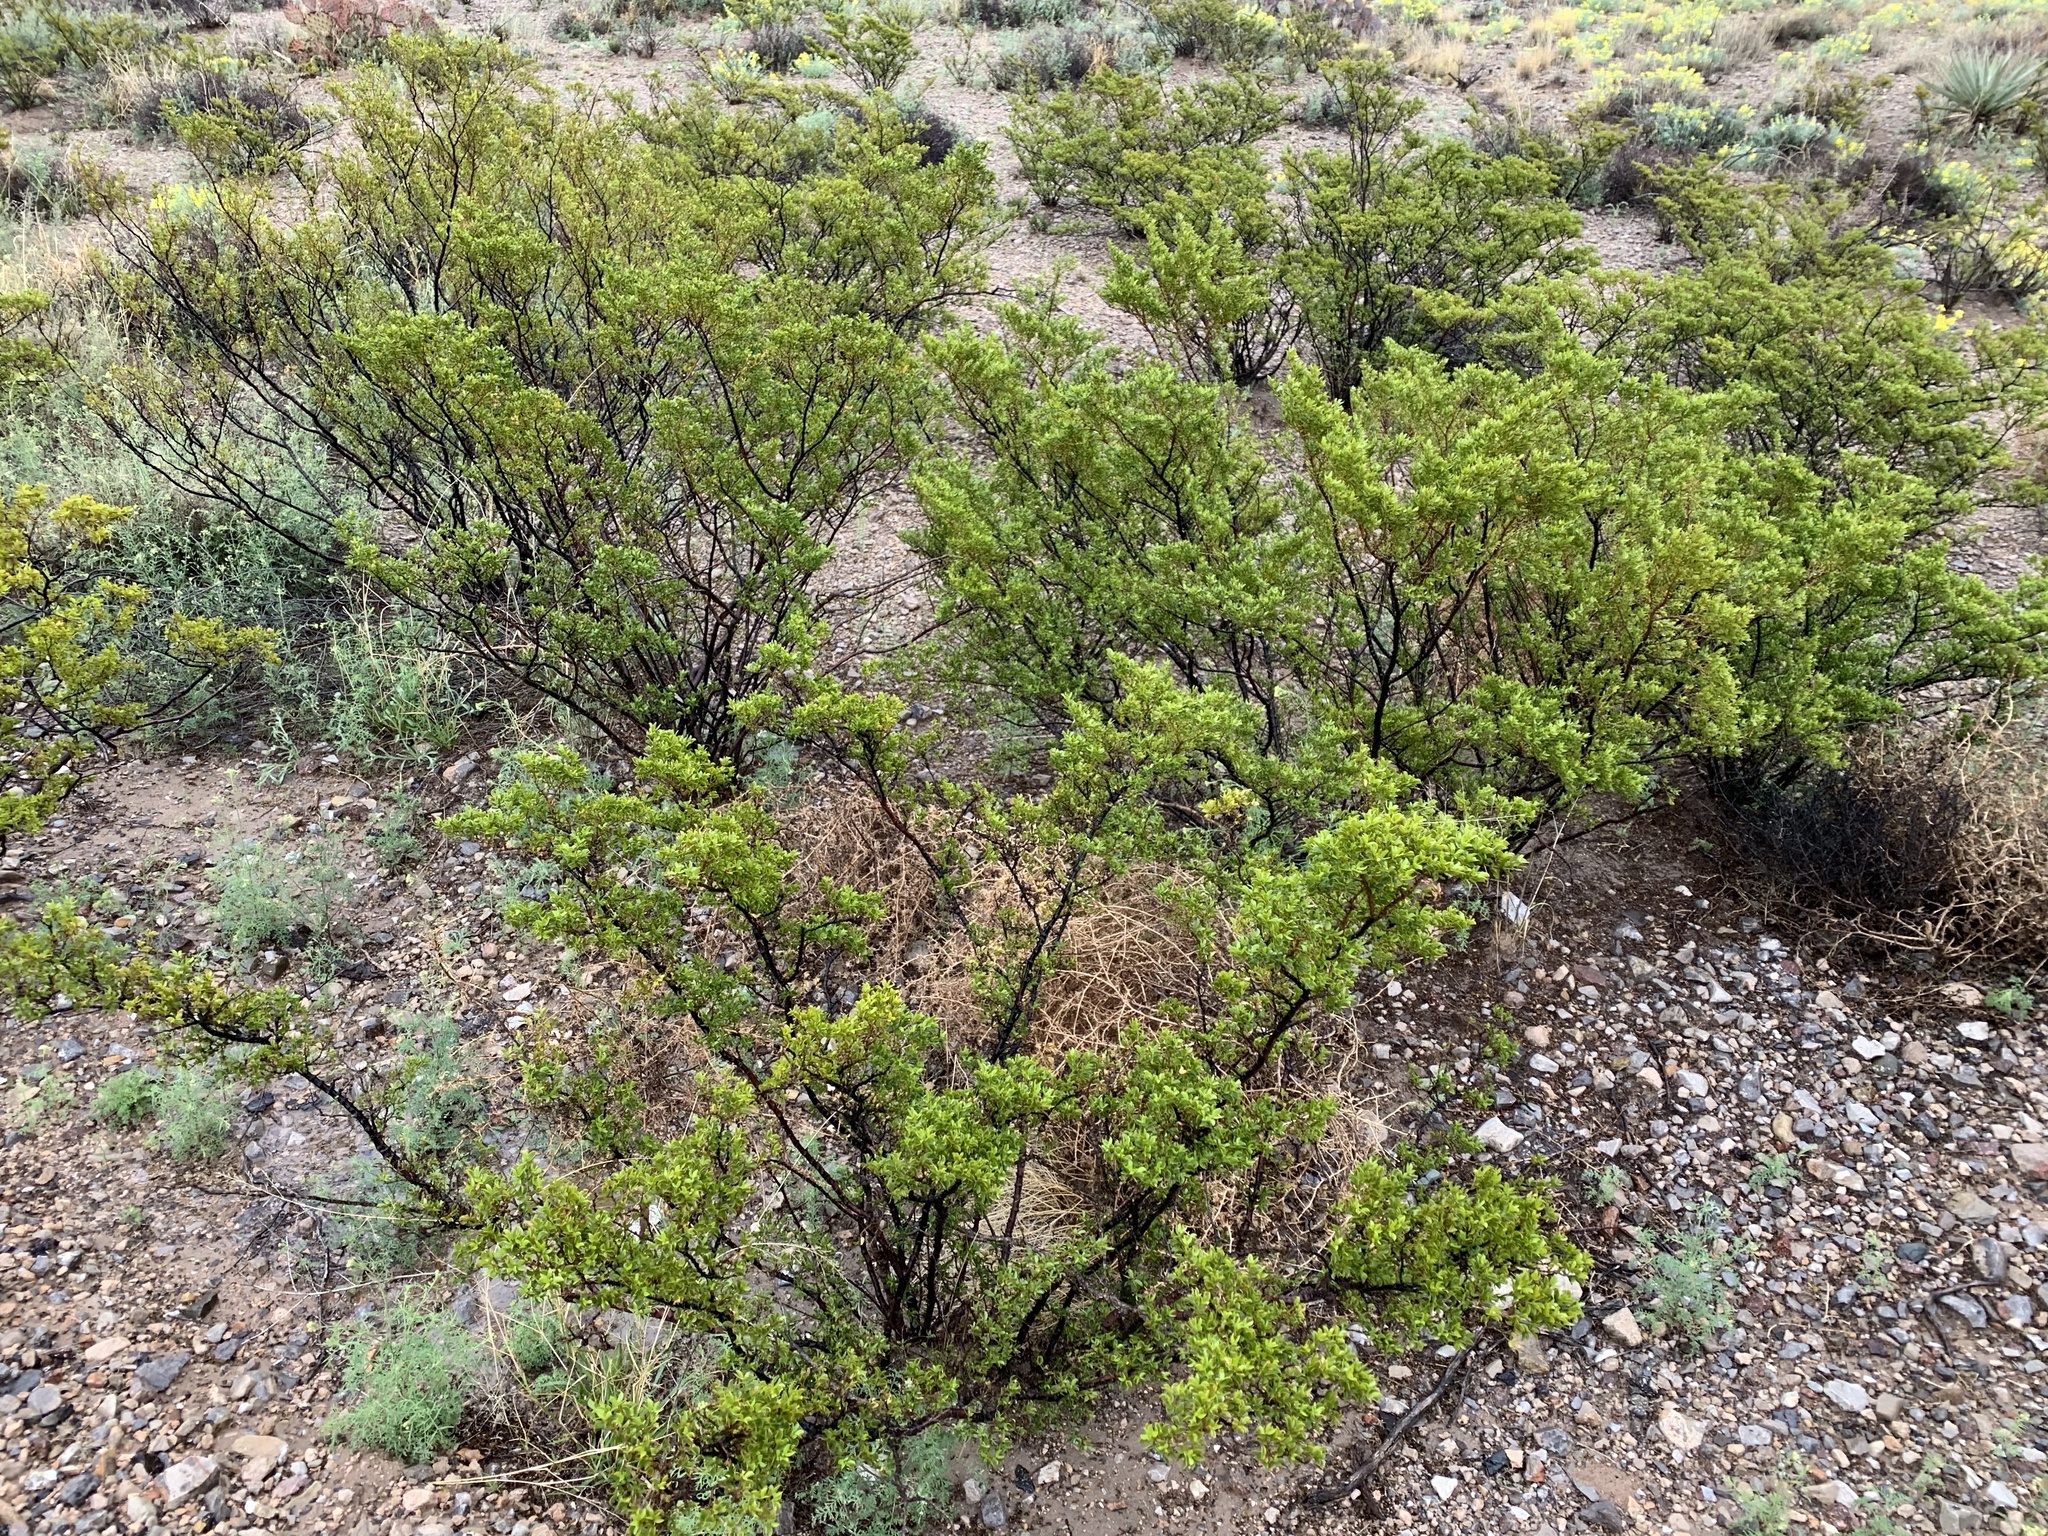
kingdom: Plantae
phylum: Tracheophyta
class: Magnoliopsida
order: Zygophyllales
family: Zygophyllaceae
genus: Larrea
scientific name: Larrea tridentata
